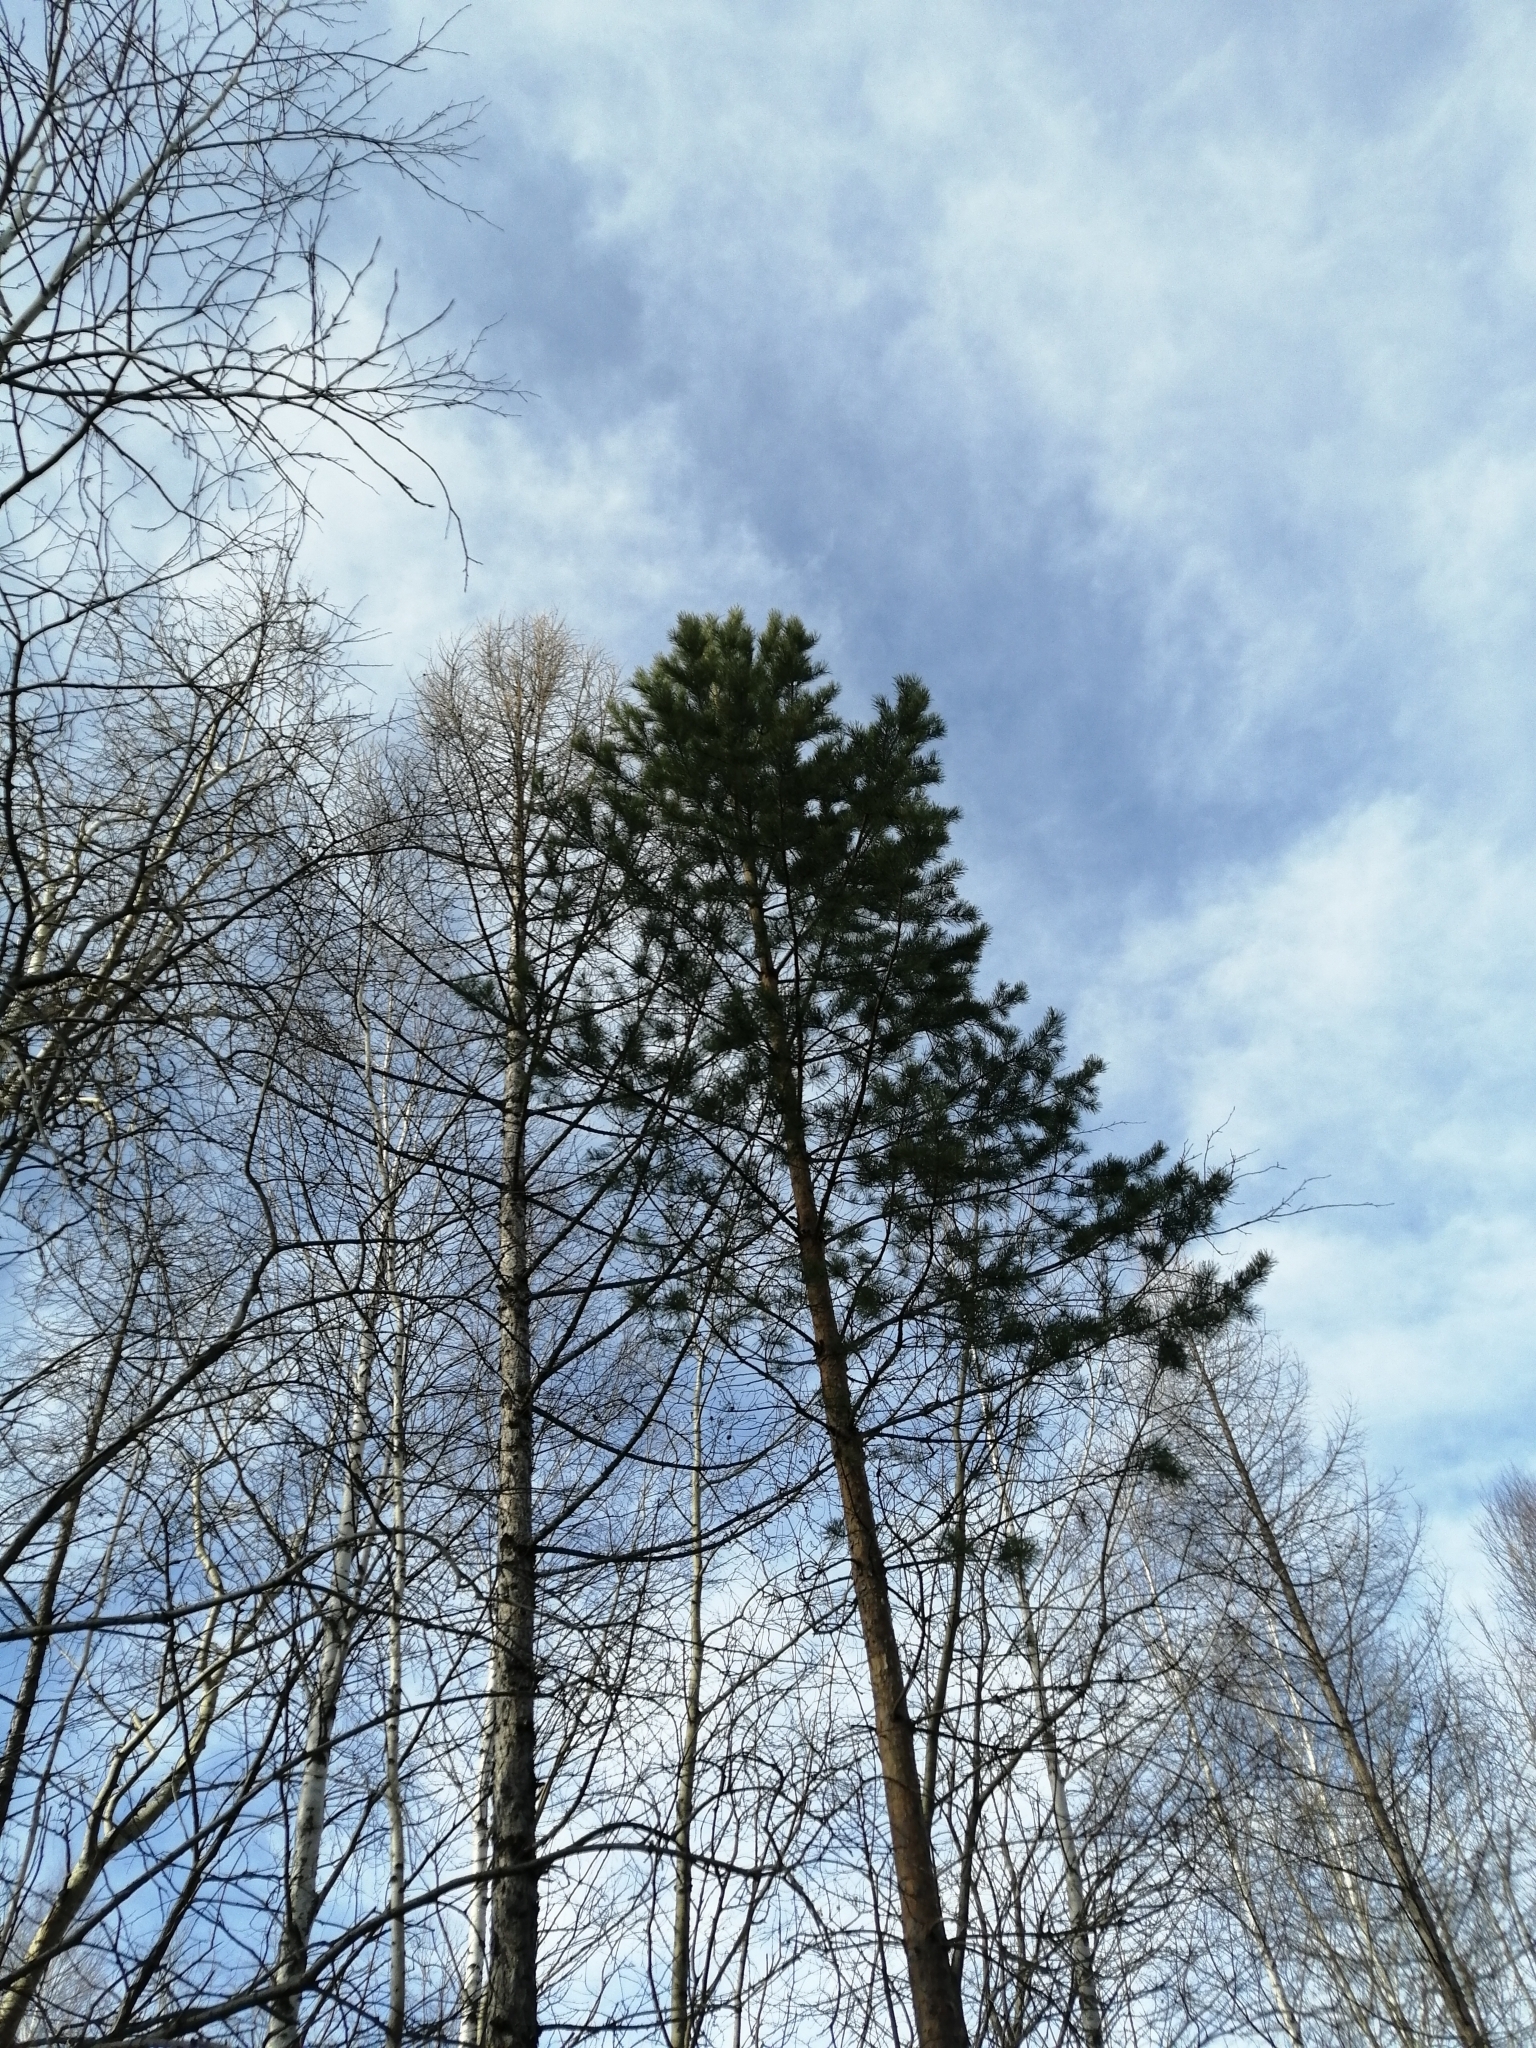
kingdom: Plantae
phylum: Tracheophyta
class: Pinopsida
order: Pinales
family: Pinaceae
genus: Pinus
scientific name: Pinus sylvestris
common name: Scots pine
